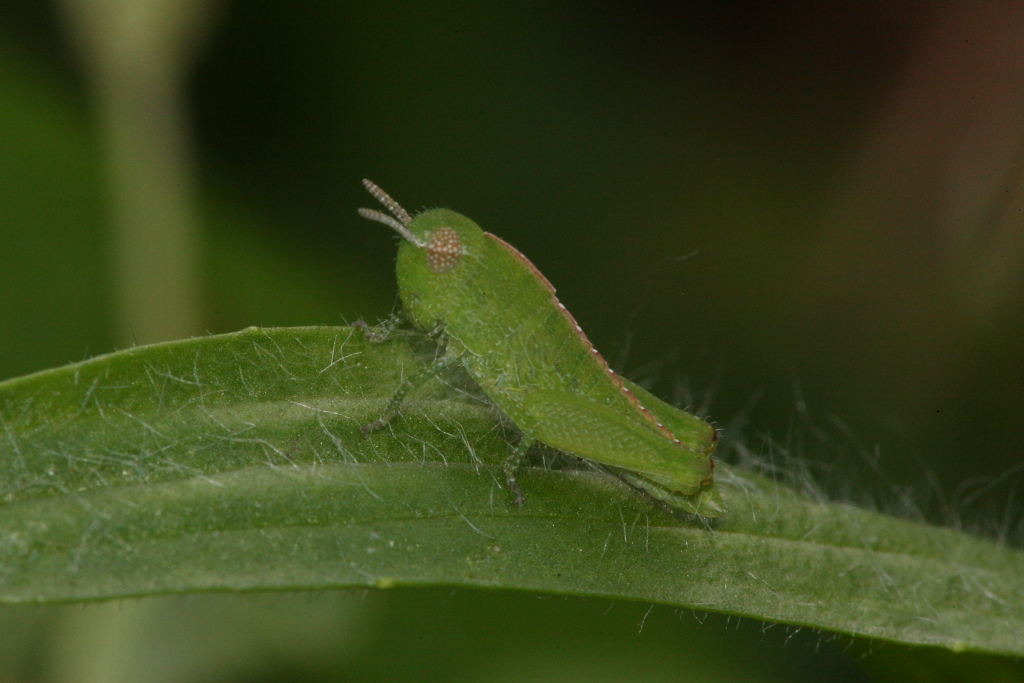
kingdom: Animalia
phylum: Arthropoda
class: Insecta
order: Orthoptera
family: Acrididae
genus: Chortophaga
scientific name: Chortophaga viridifasciata
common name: Green-striped grasshopper
